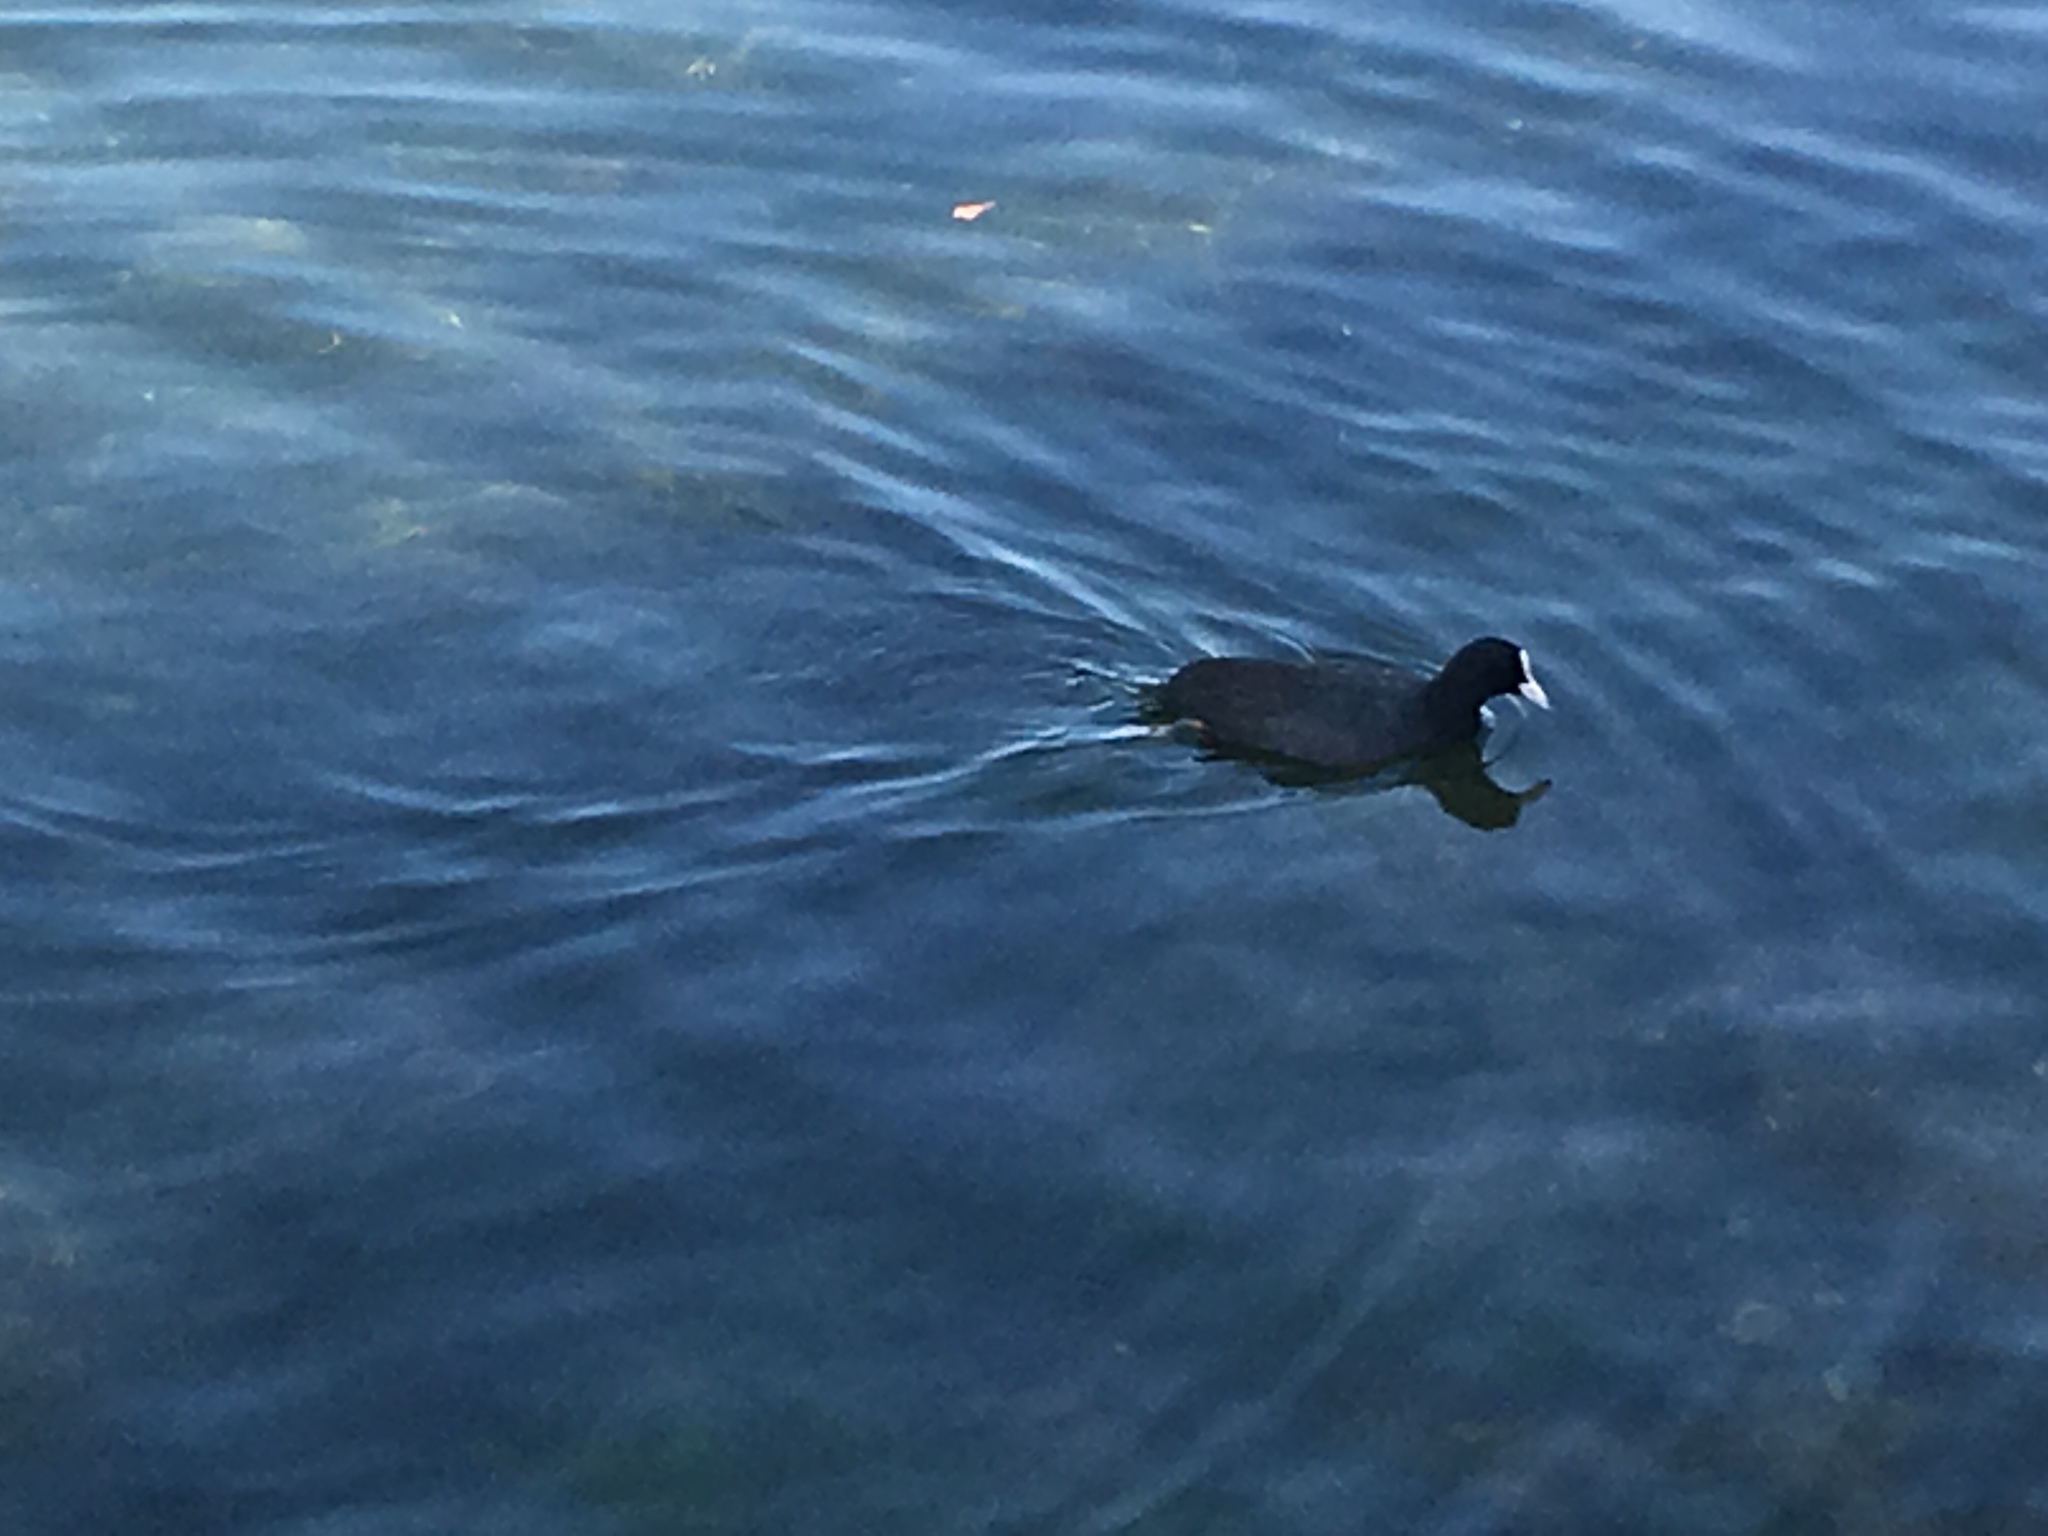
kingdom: Animalia
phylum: Chordata
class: Aves
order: Gruiformes
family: Rallidae
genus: Fulica
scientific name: Fulica atra
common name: Eurasian coot
